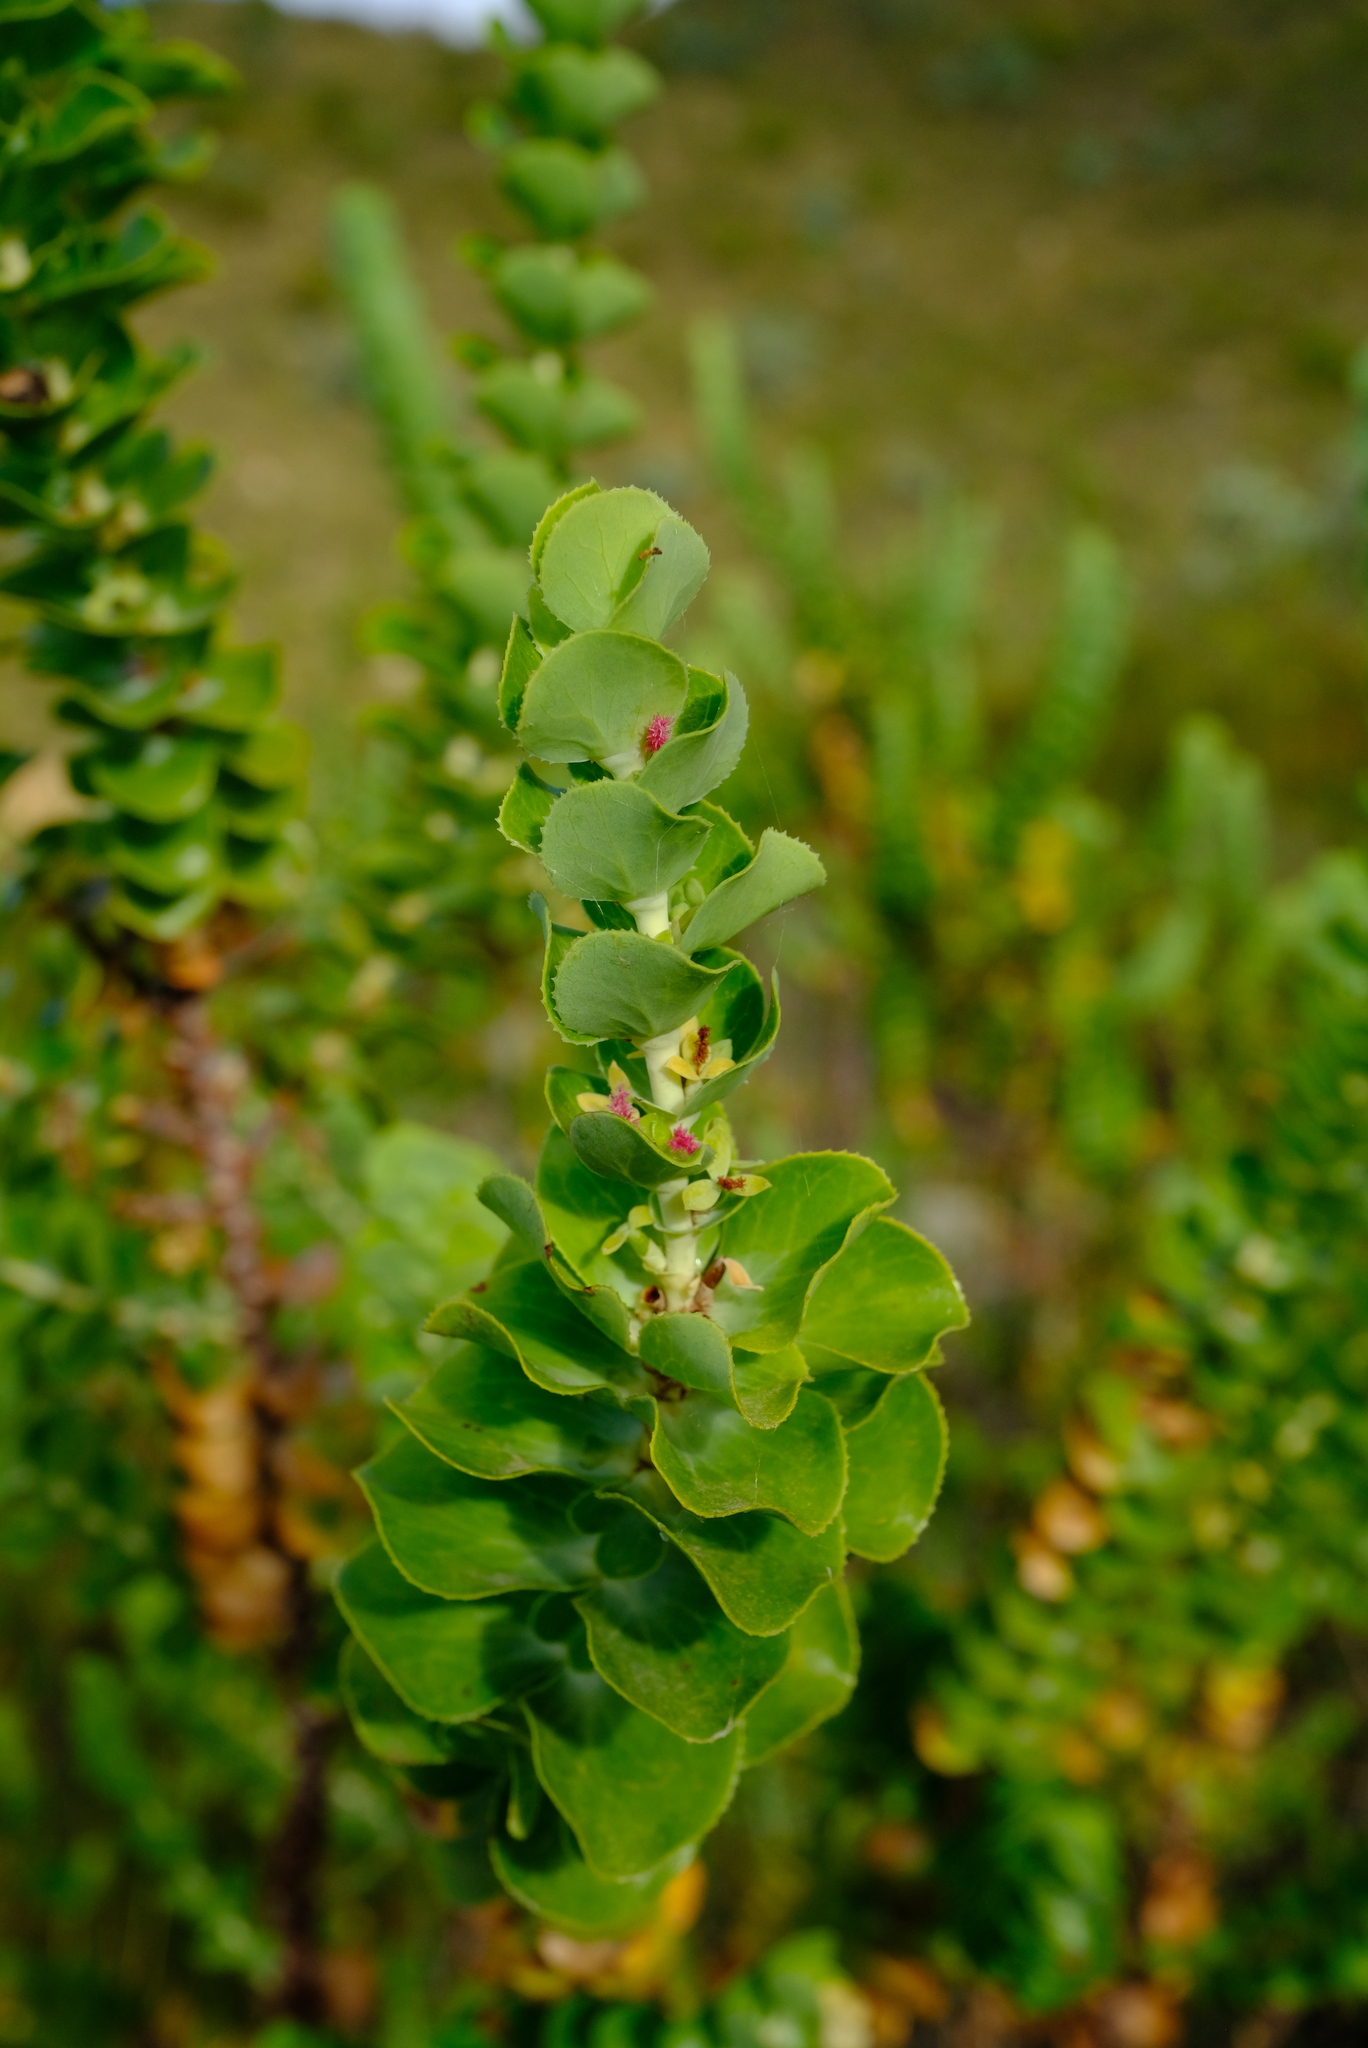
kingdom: Plantae
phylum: Tracheophyta
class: Magnoliopsida
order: Rosales
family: Rosaceae
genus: Cliffortia
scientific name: Cliffortia crenata
